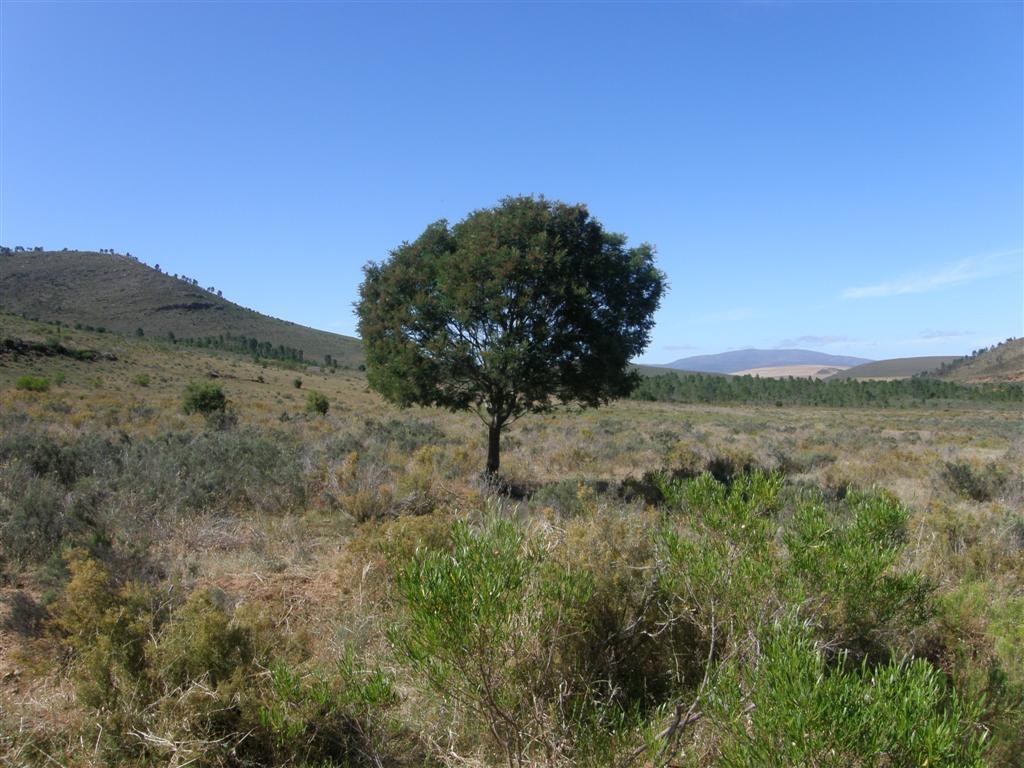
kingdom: Plantae
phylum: Tracheophyta
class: Magnoliopsida
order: Fabales
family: Fabaceae
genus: Acacia
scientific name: Acacia mearnsii
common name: Black wattle
